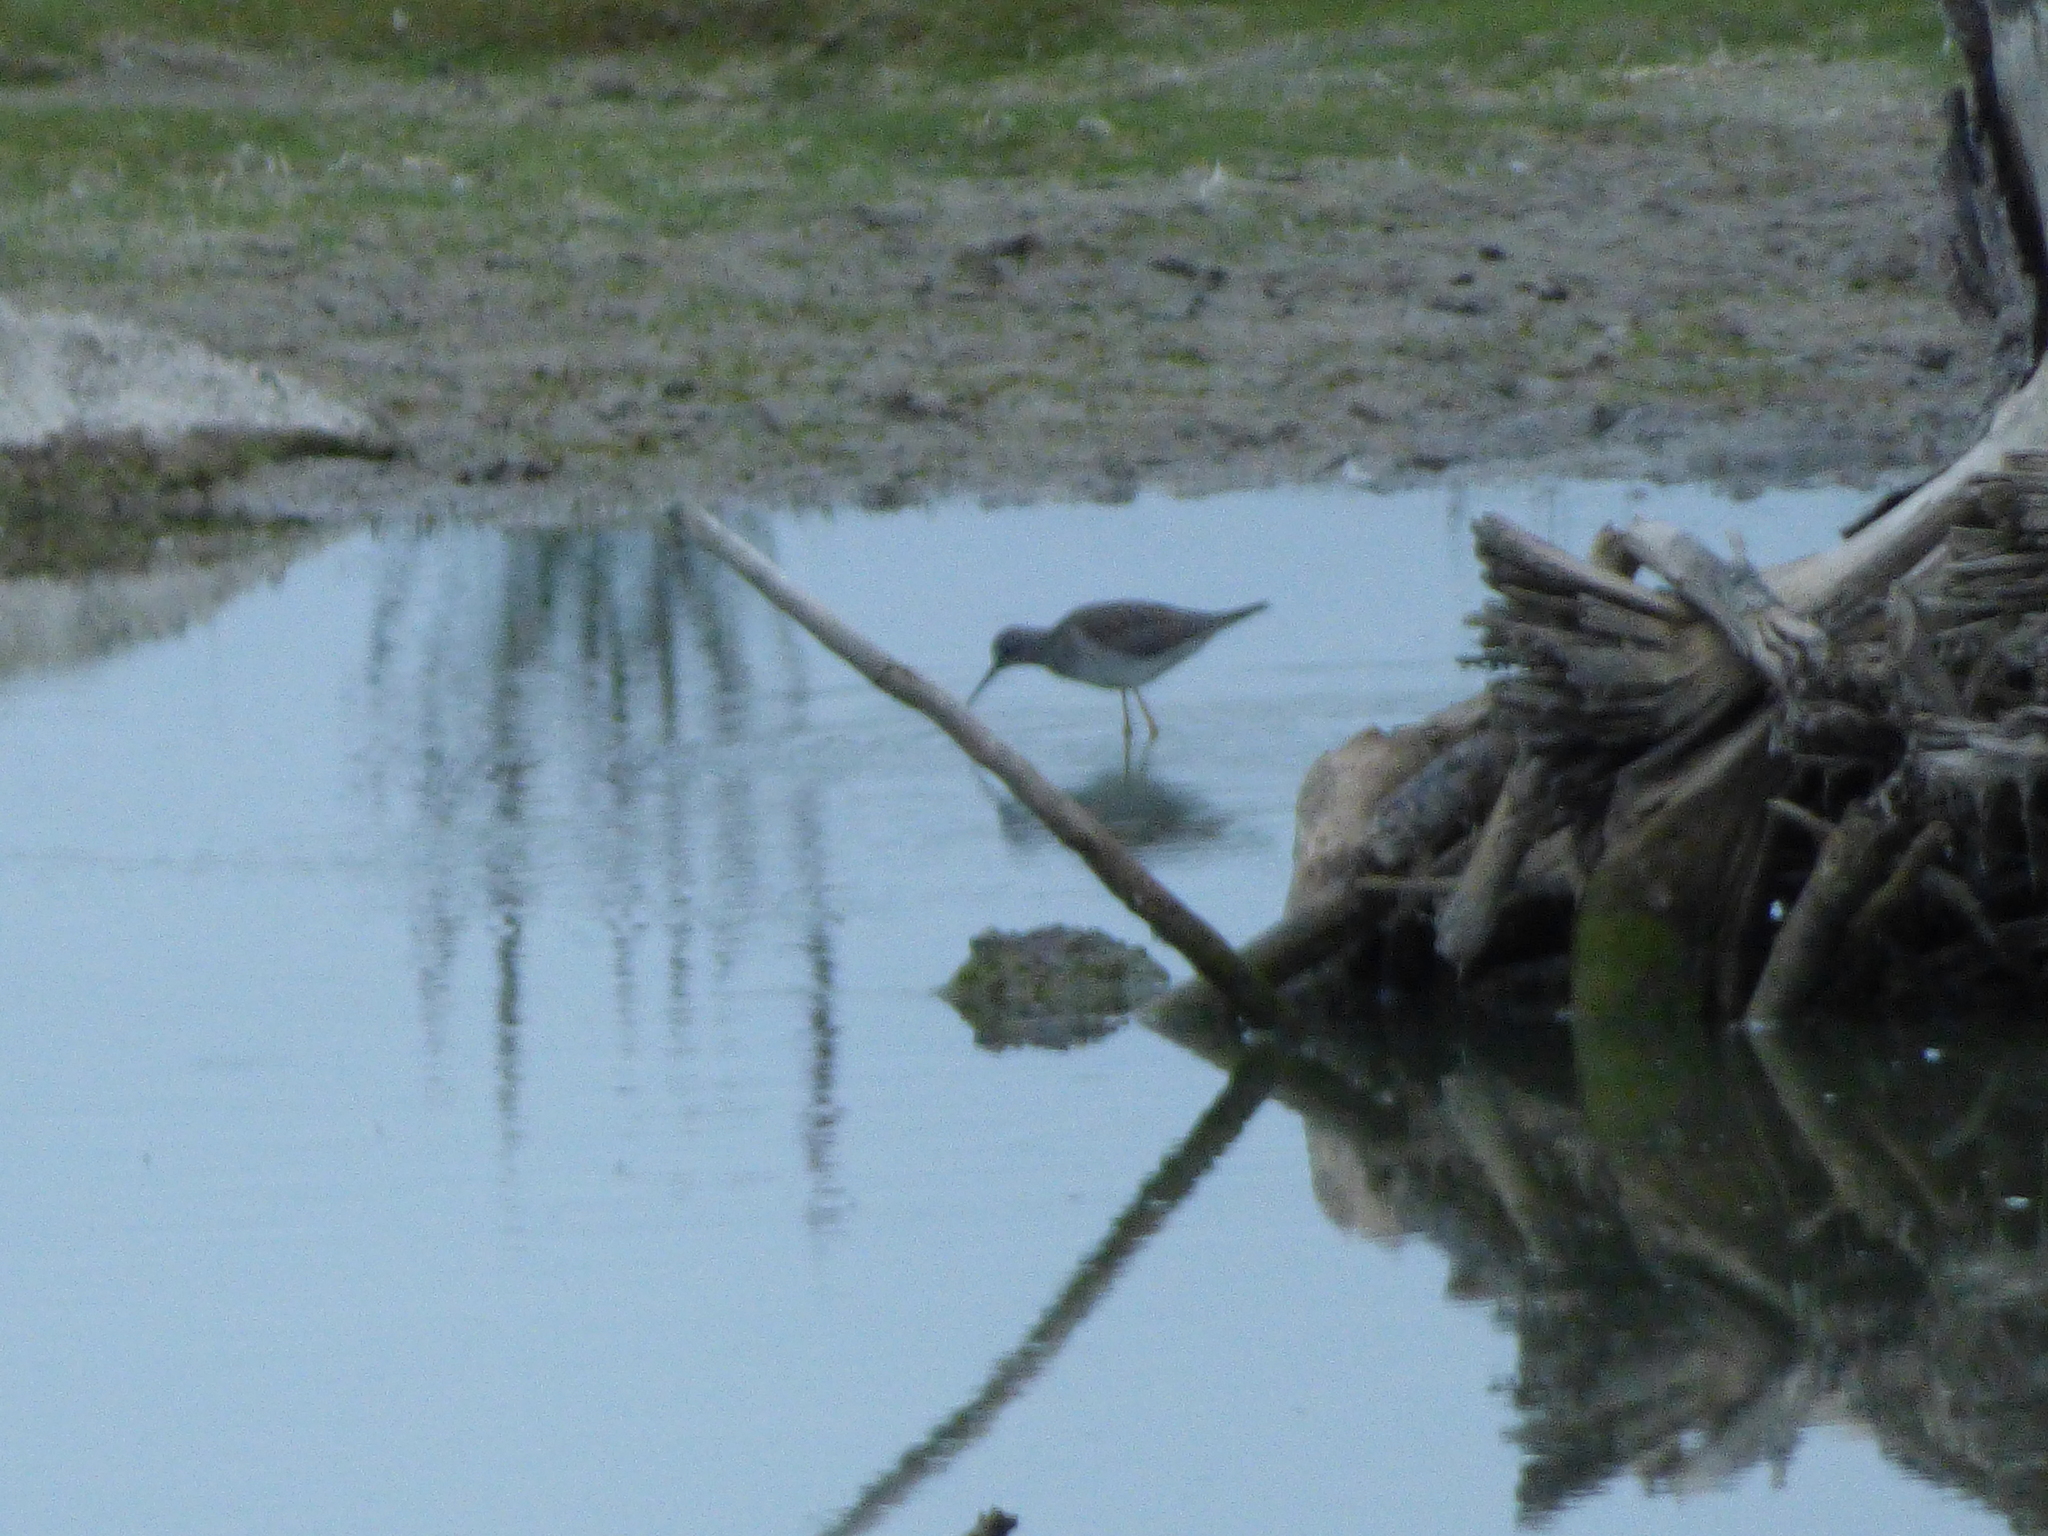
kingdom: Animalia
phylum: Chordata
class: Aves
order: Charadriiformes
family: Scolopacidae
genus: Tringa
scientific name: Tringa flavipes
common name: Lesser yellowlegs
